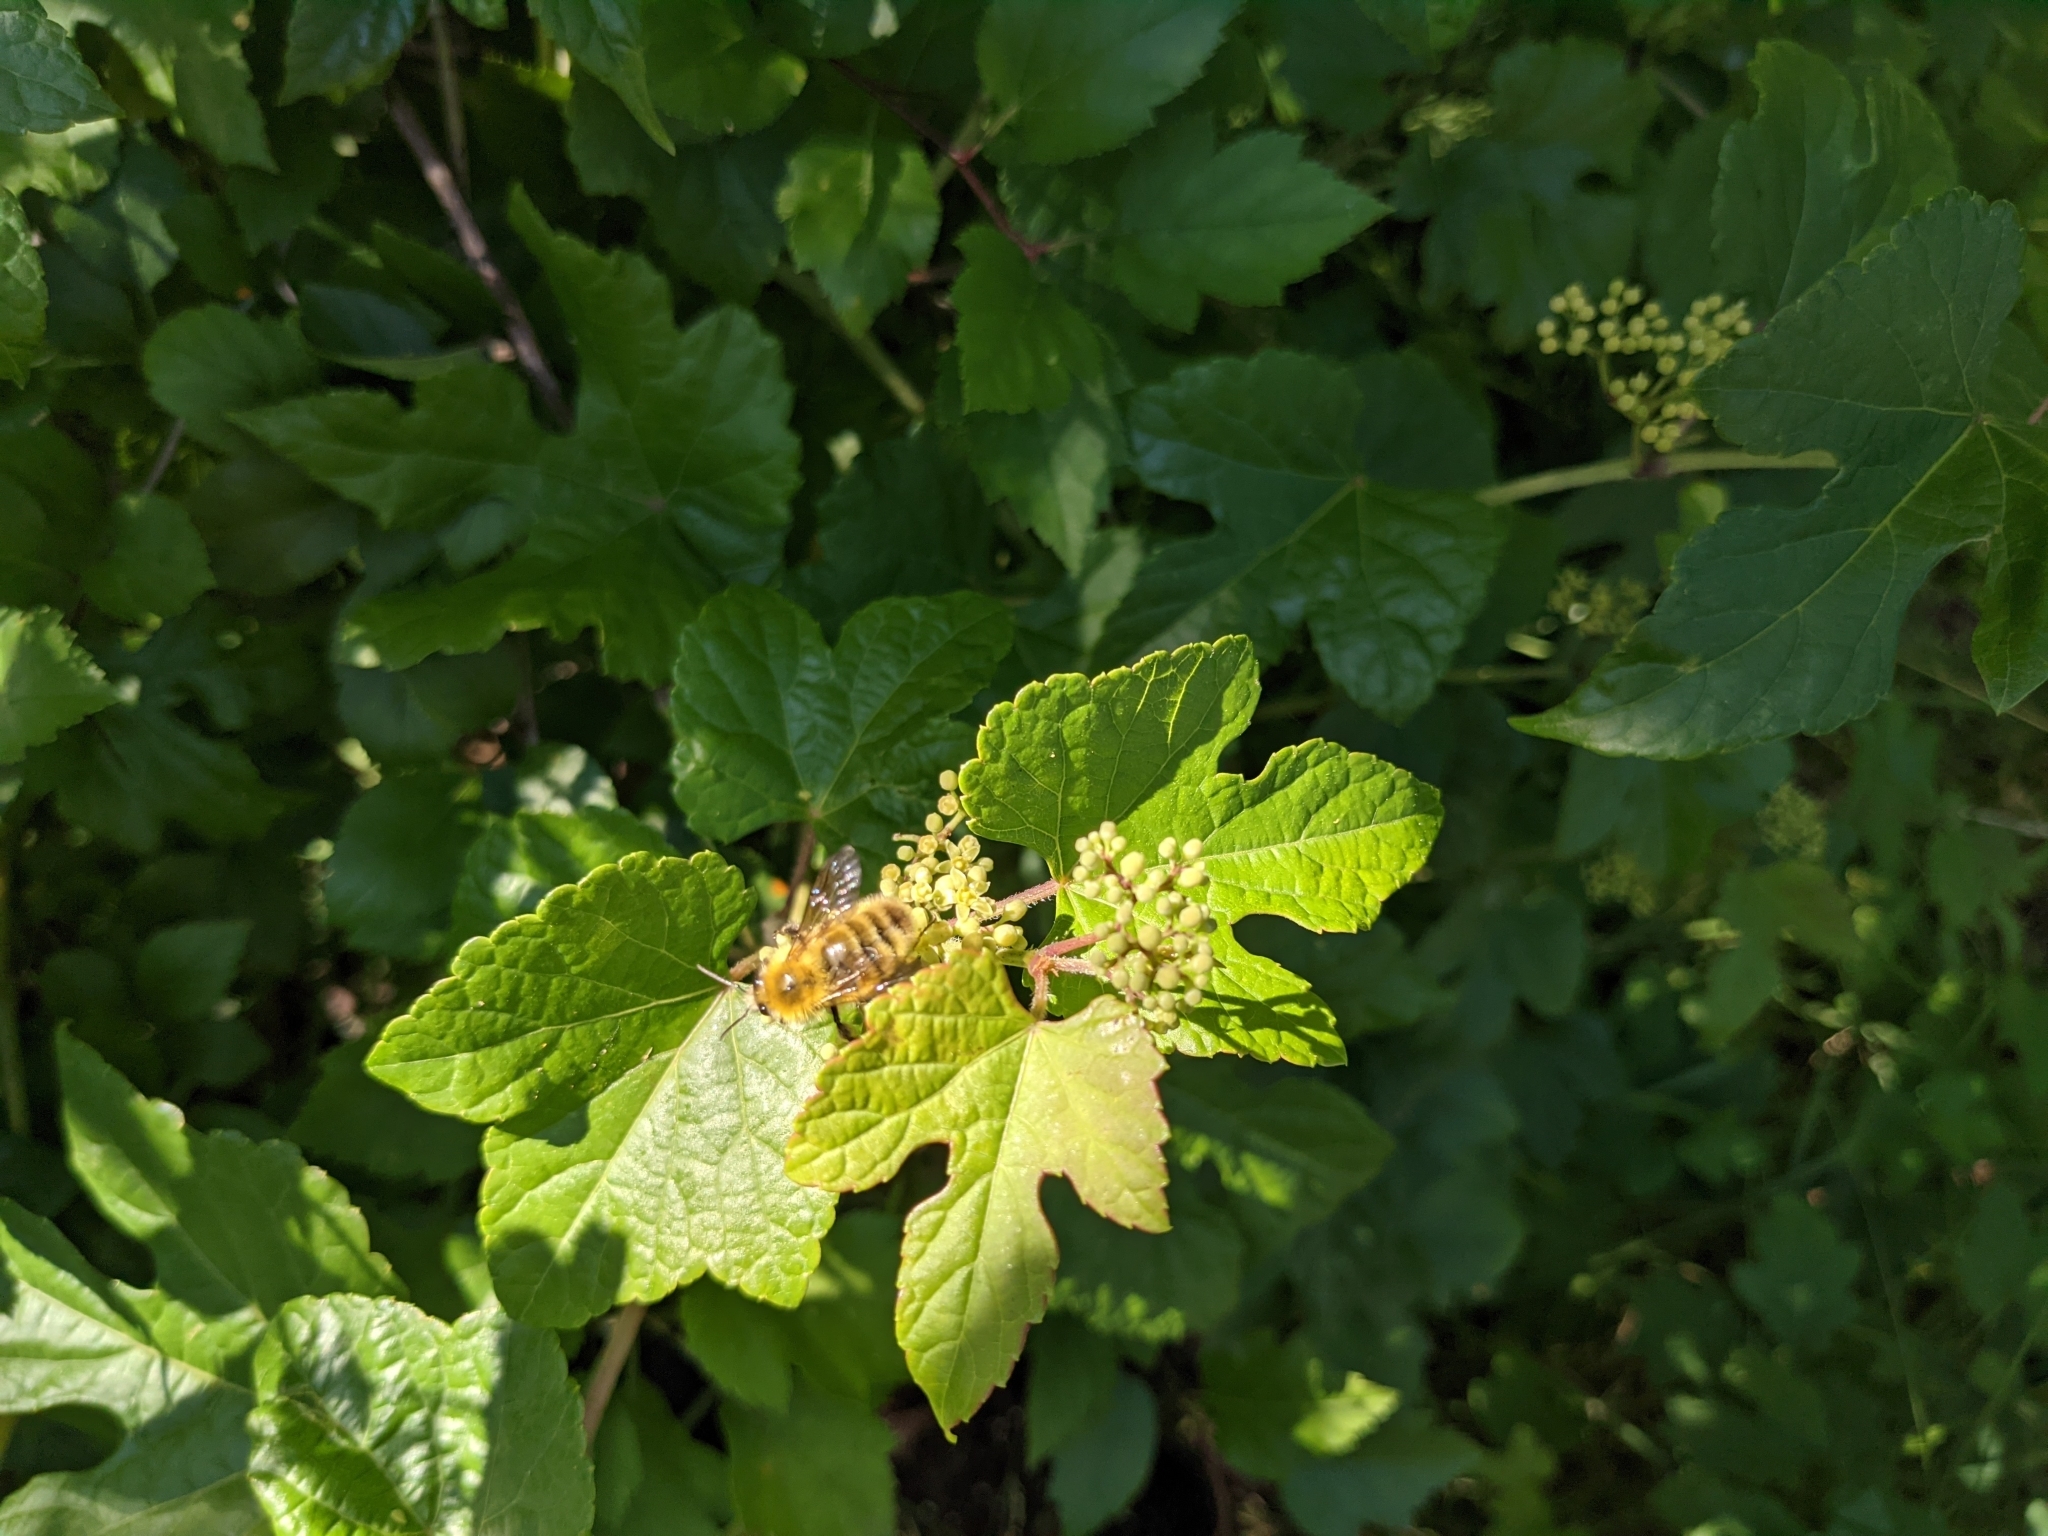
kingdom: Animalia
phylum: Arthropoda
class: Insecta
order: Hymenoptera
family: Apidae
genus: Bombus
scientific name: Bombus perplexus
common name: Confusing bumble bee
